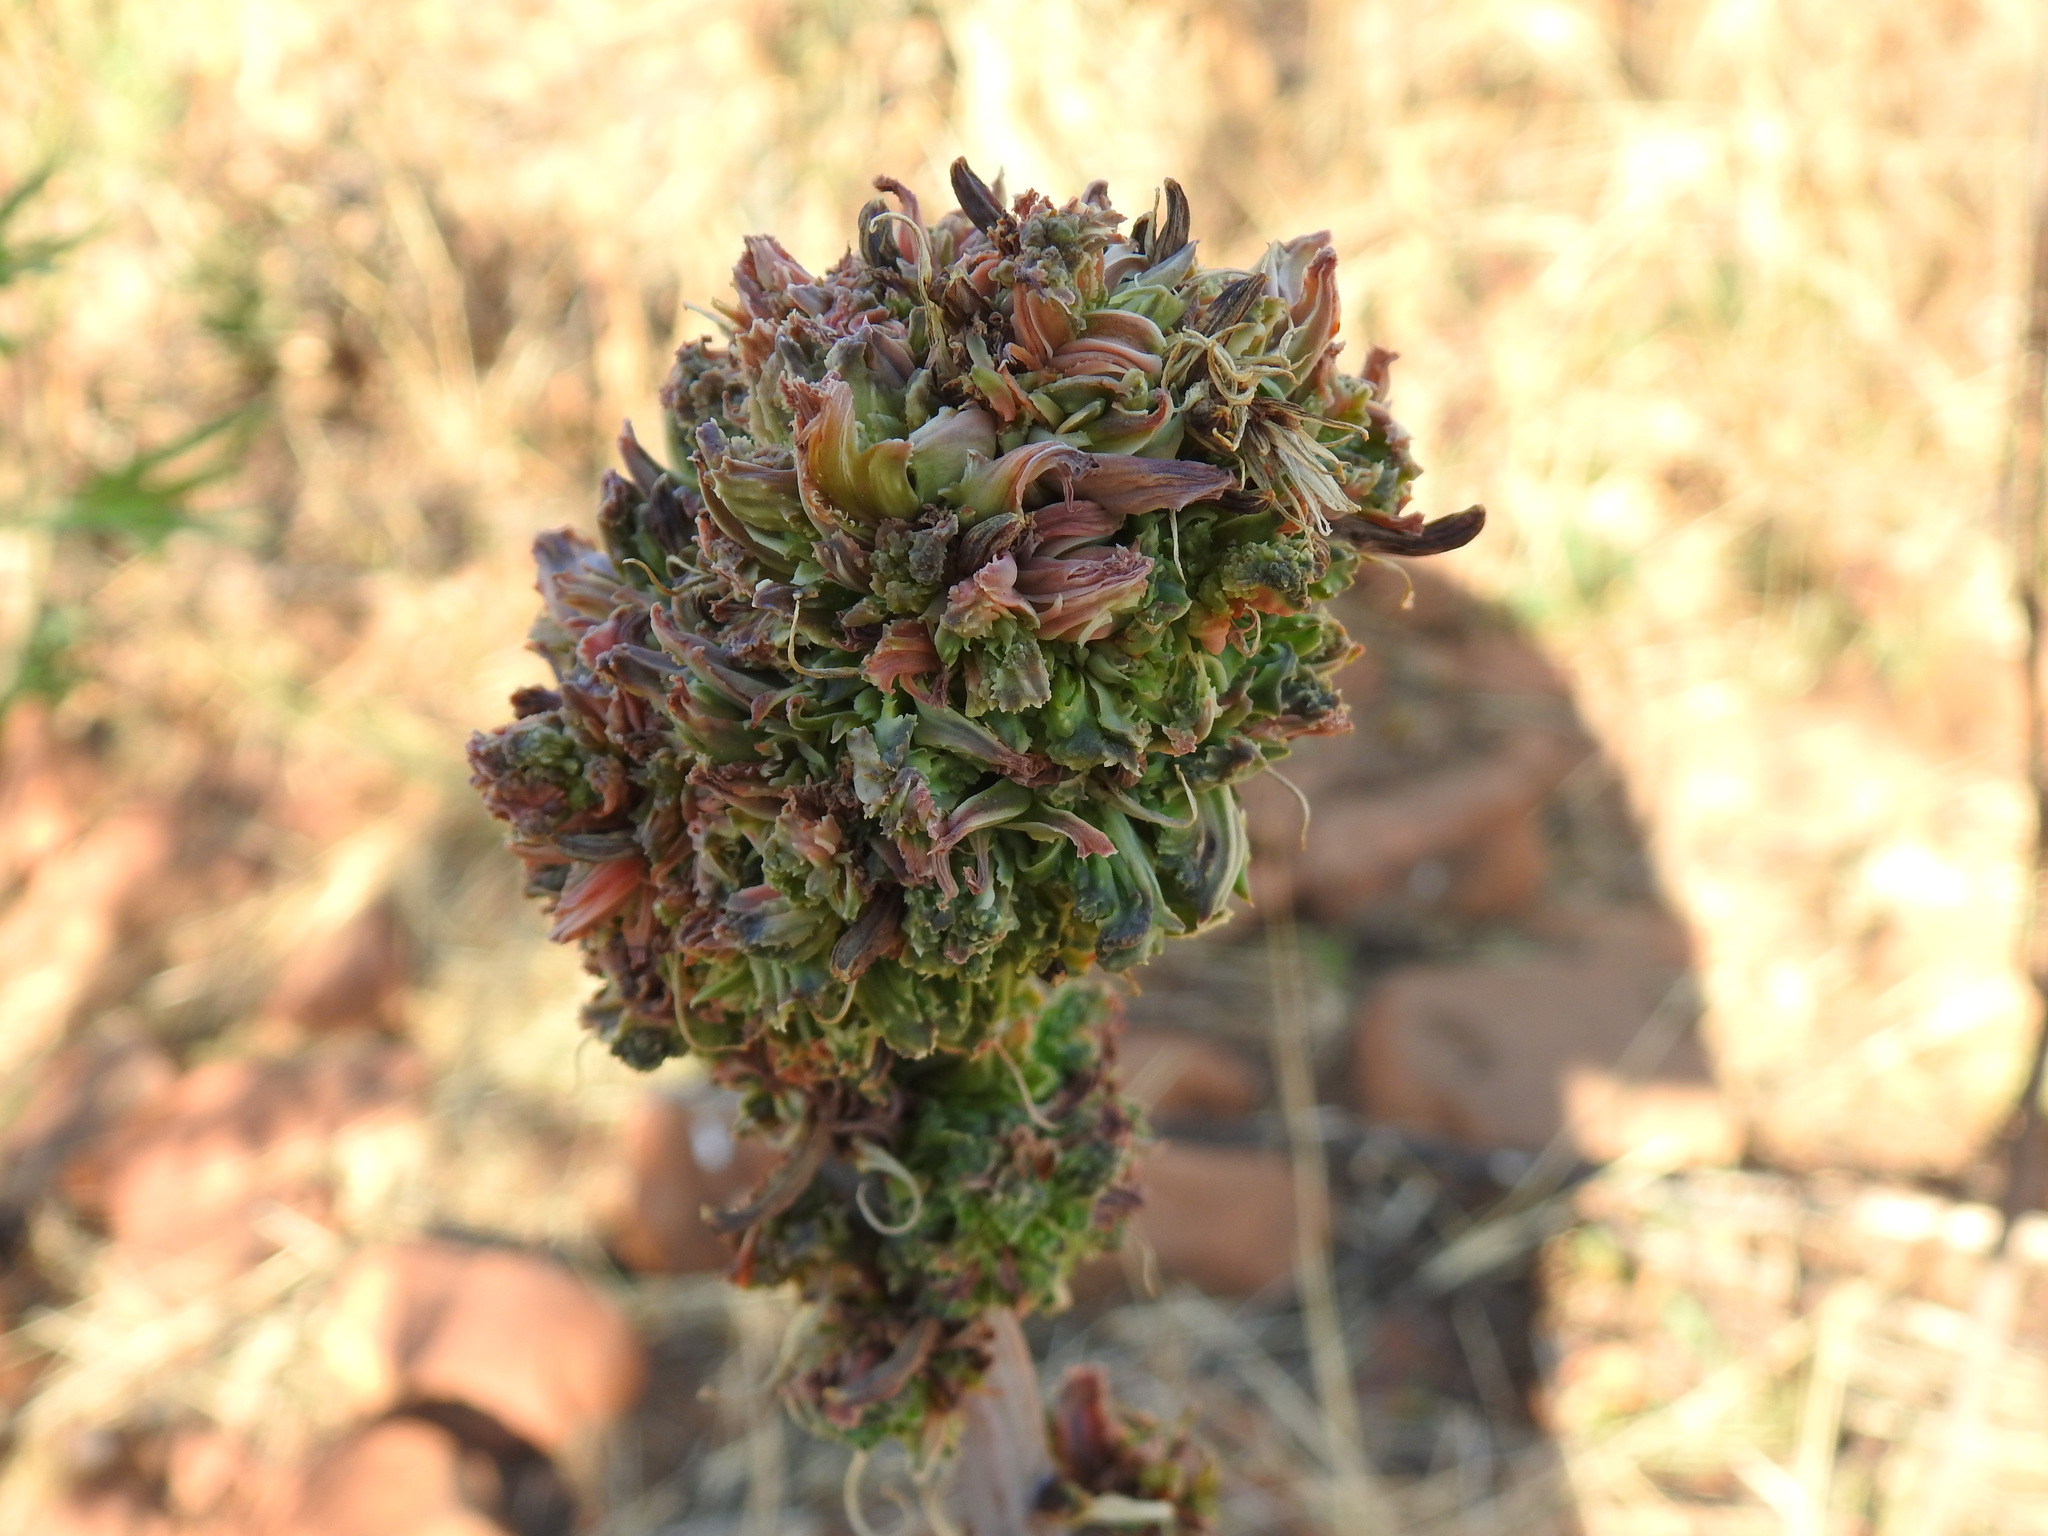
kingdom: Animalia
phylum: Arthropoda
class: Arachnida
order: Trombidiformes
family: Eriophyidae
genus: Aceria
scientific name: Aceria aloinis
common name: Mite
